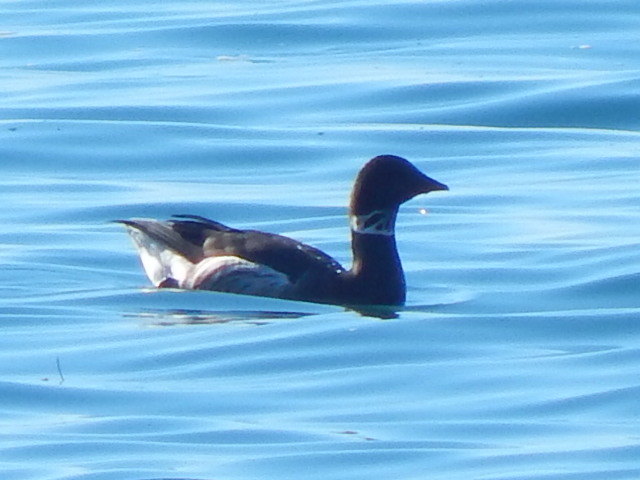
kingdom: Animalia
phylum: Chordata
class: Aves
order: Anseriformes
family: Anatidae
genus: Branta
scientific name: Branta bernicla
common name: Brant goose
